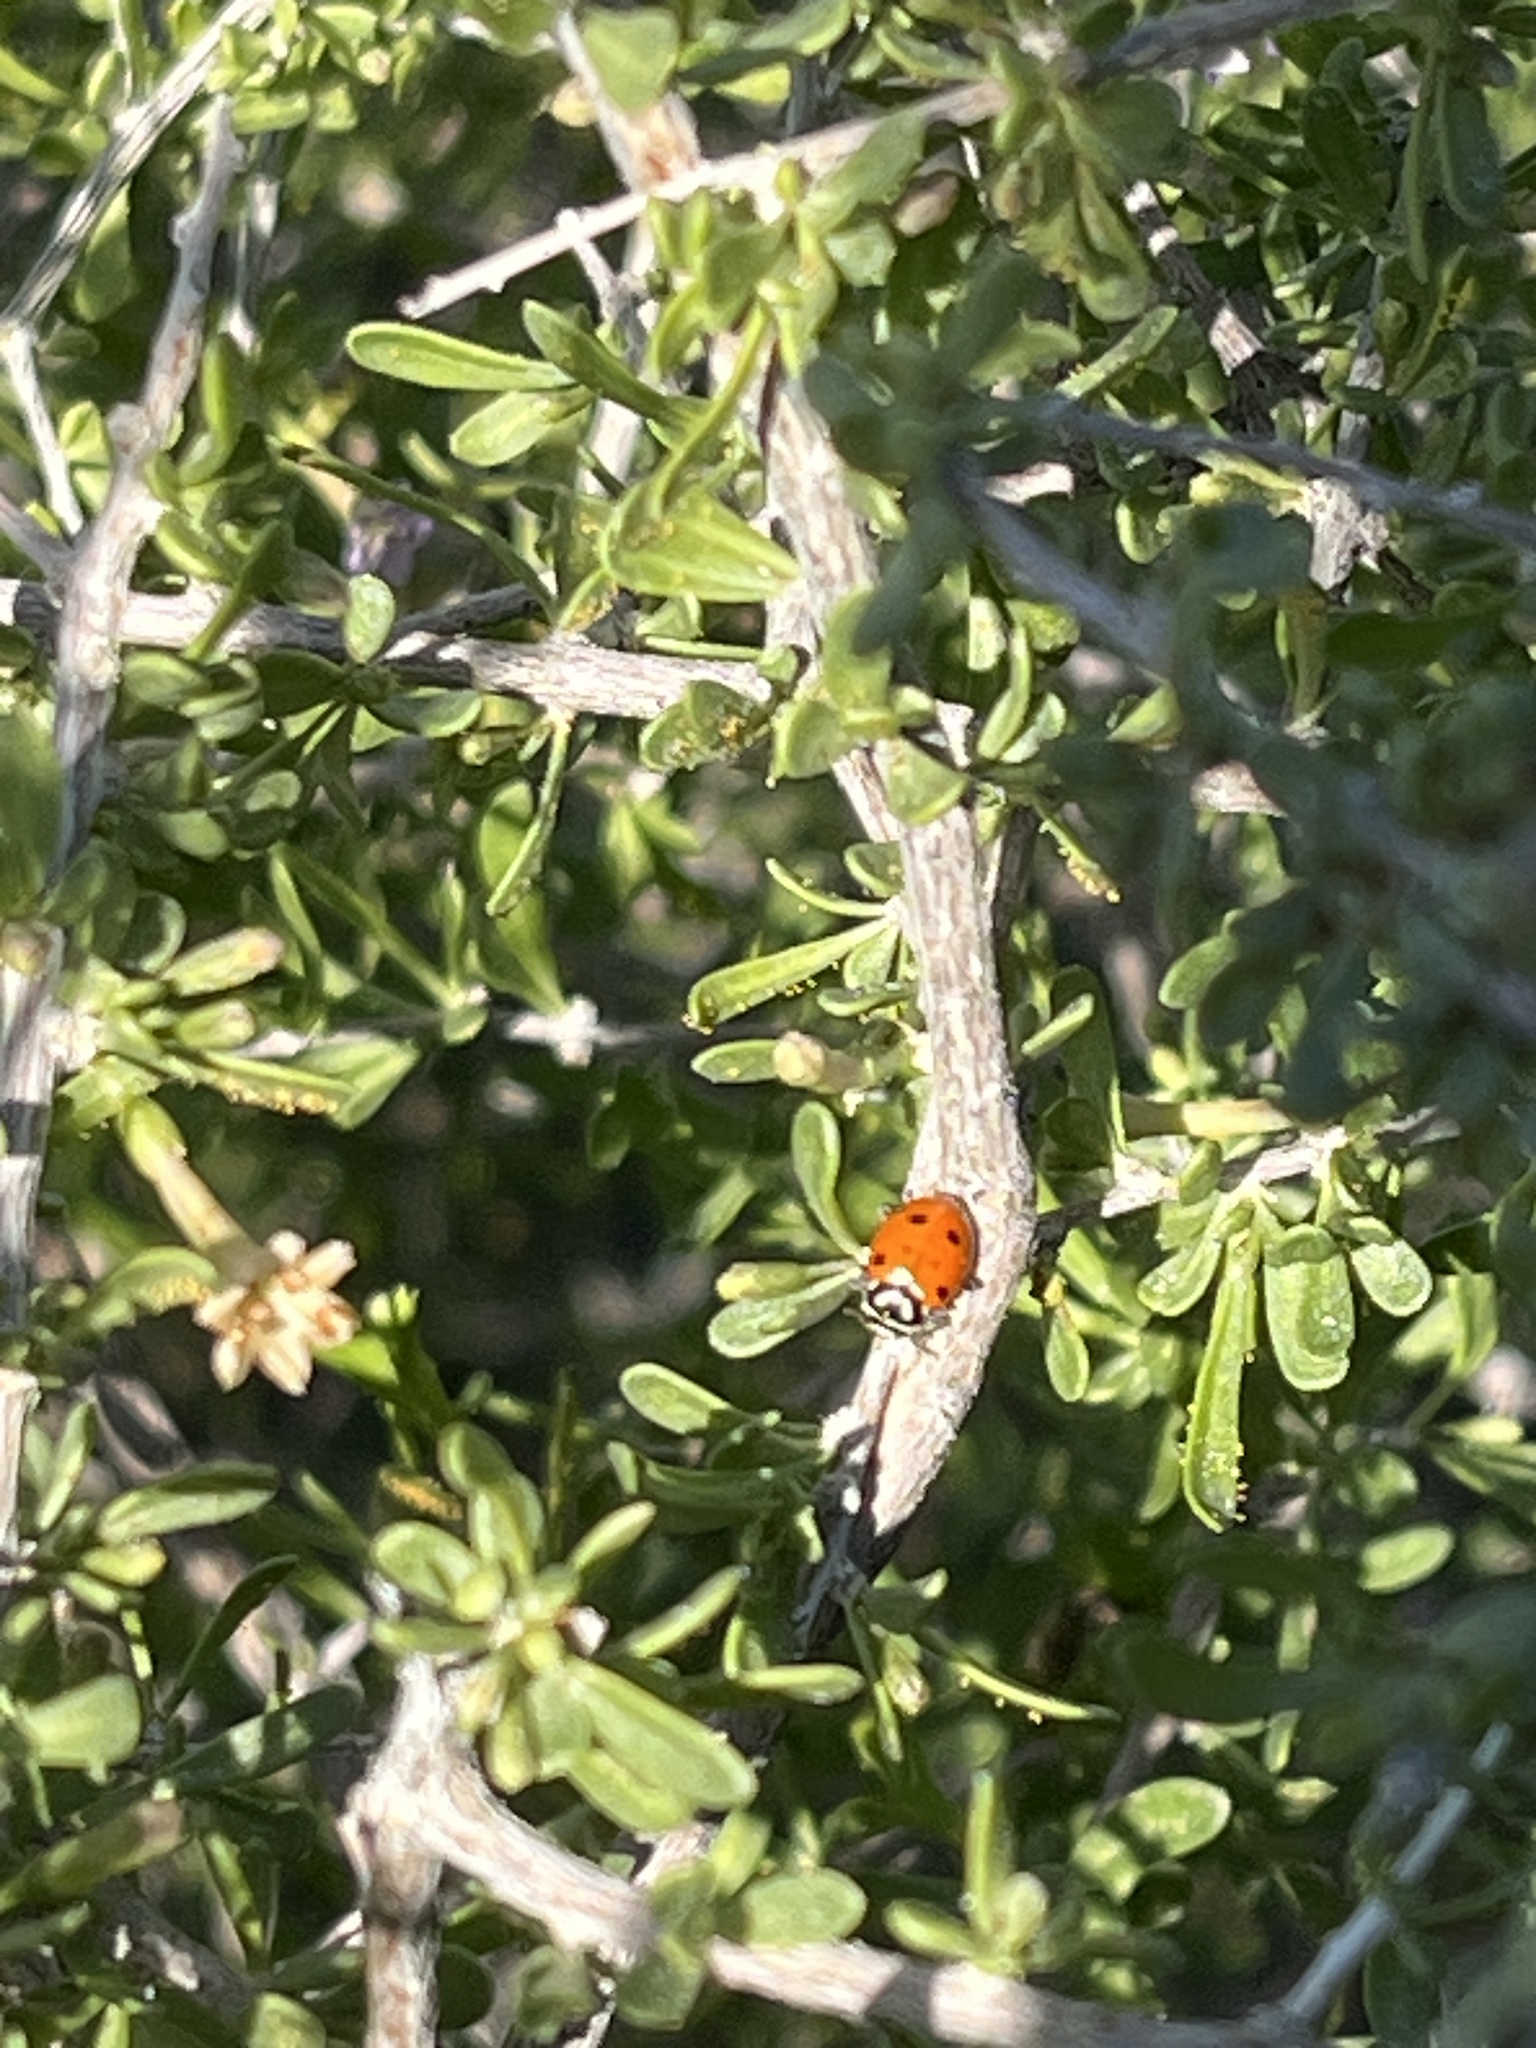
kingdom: Animalia
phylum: Arthropoda
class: Insecta
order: Coleoptera
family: Coccinellidae
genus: Hippodamia
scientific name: Hippodamia convergens
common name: Convergent lady beetle
